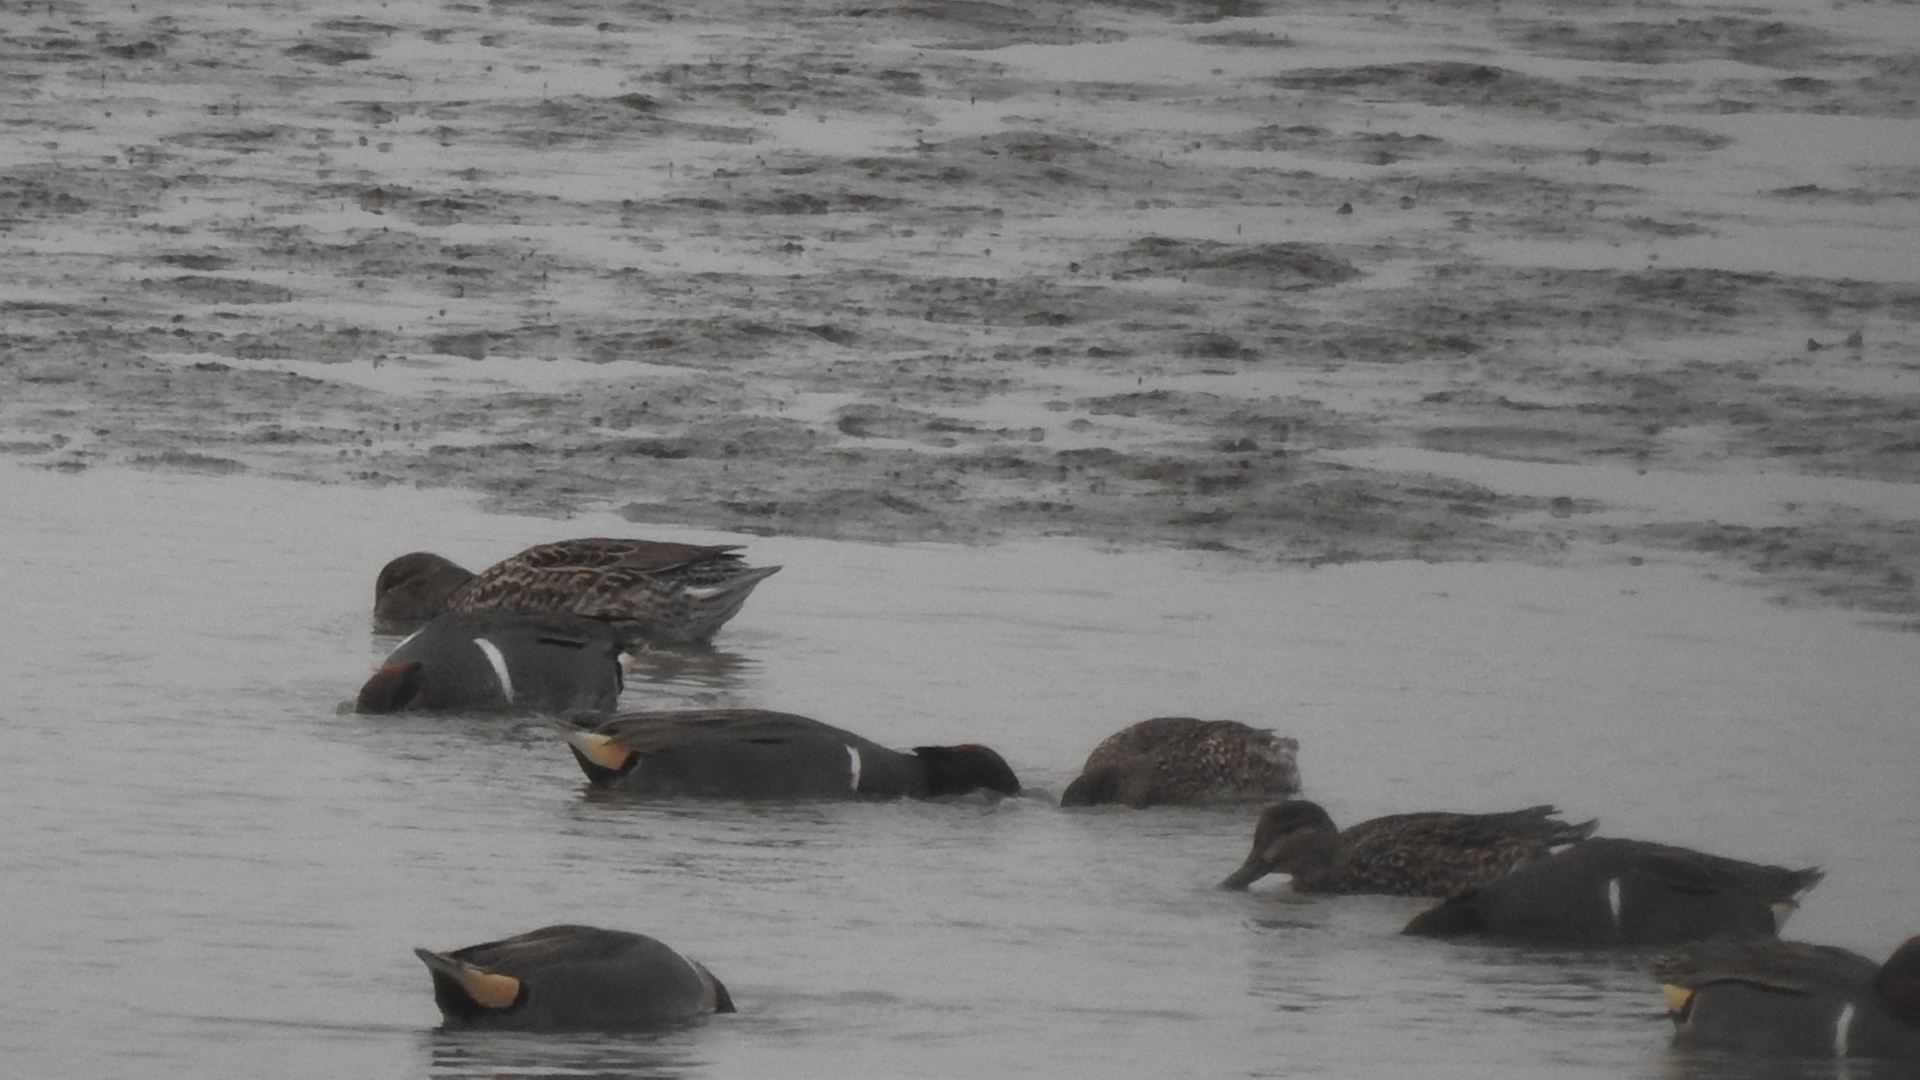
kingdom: Animalia
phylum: Chordata
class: Aves
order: Anseriformes
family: Anatidae
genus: Anas
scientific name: Anas crecca
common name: Eurasian teal
